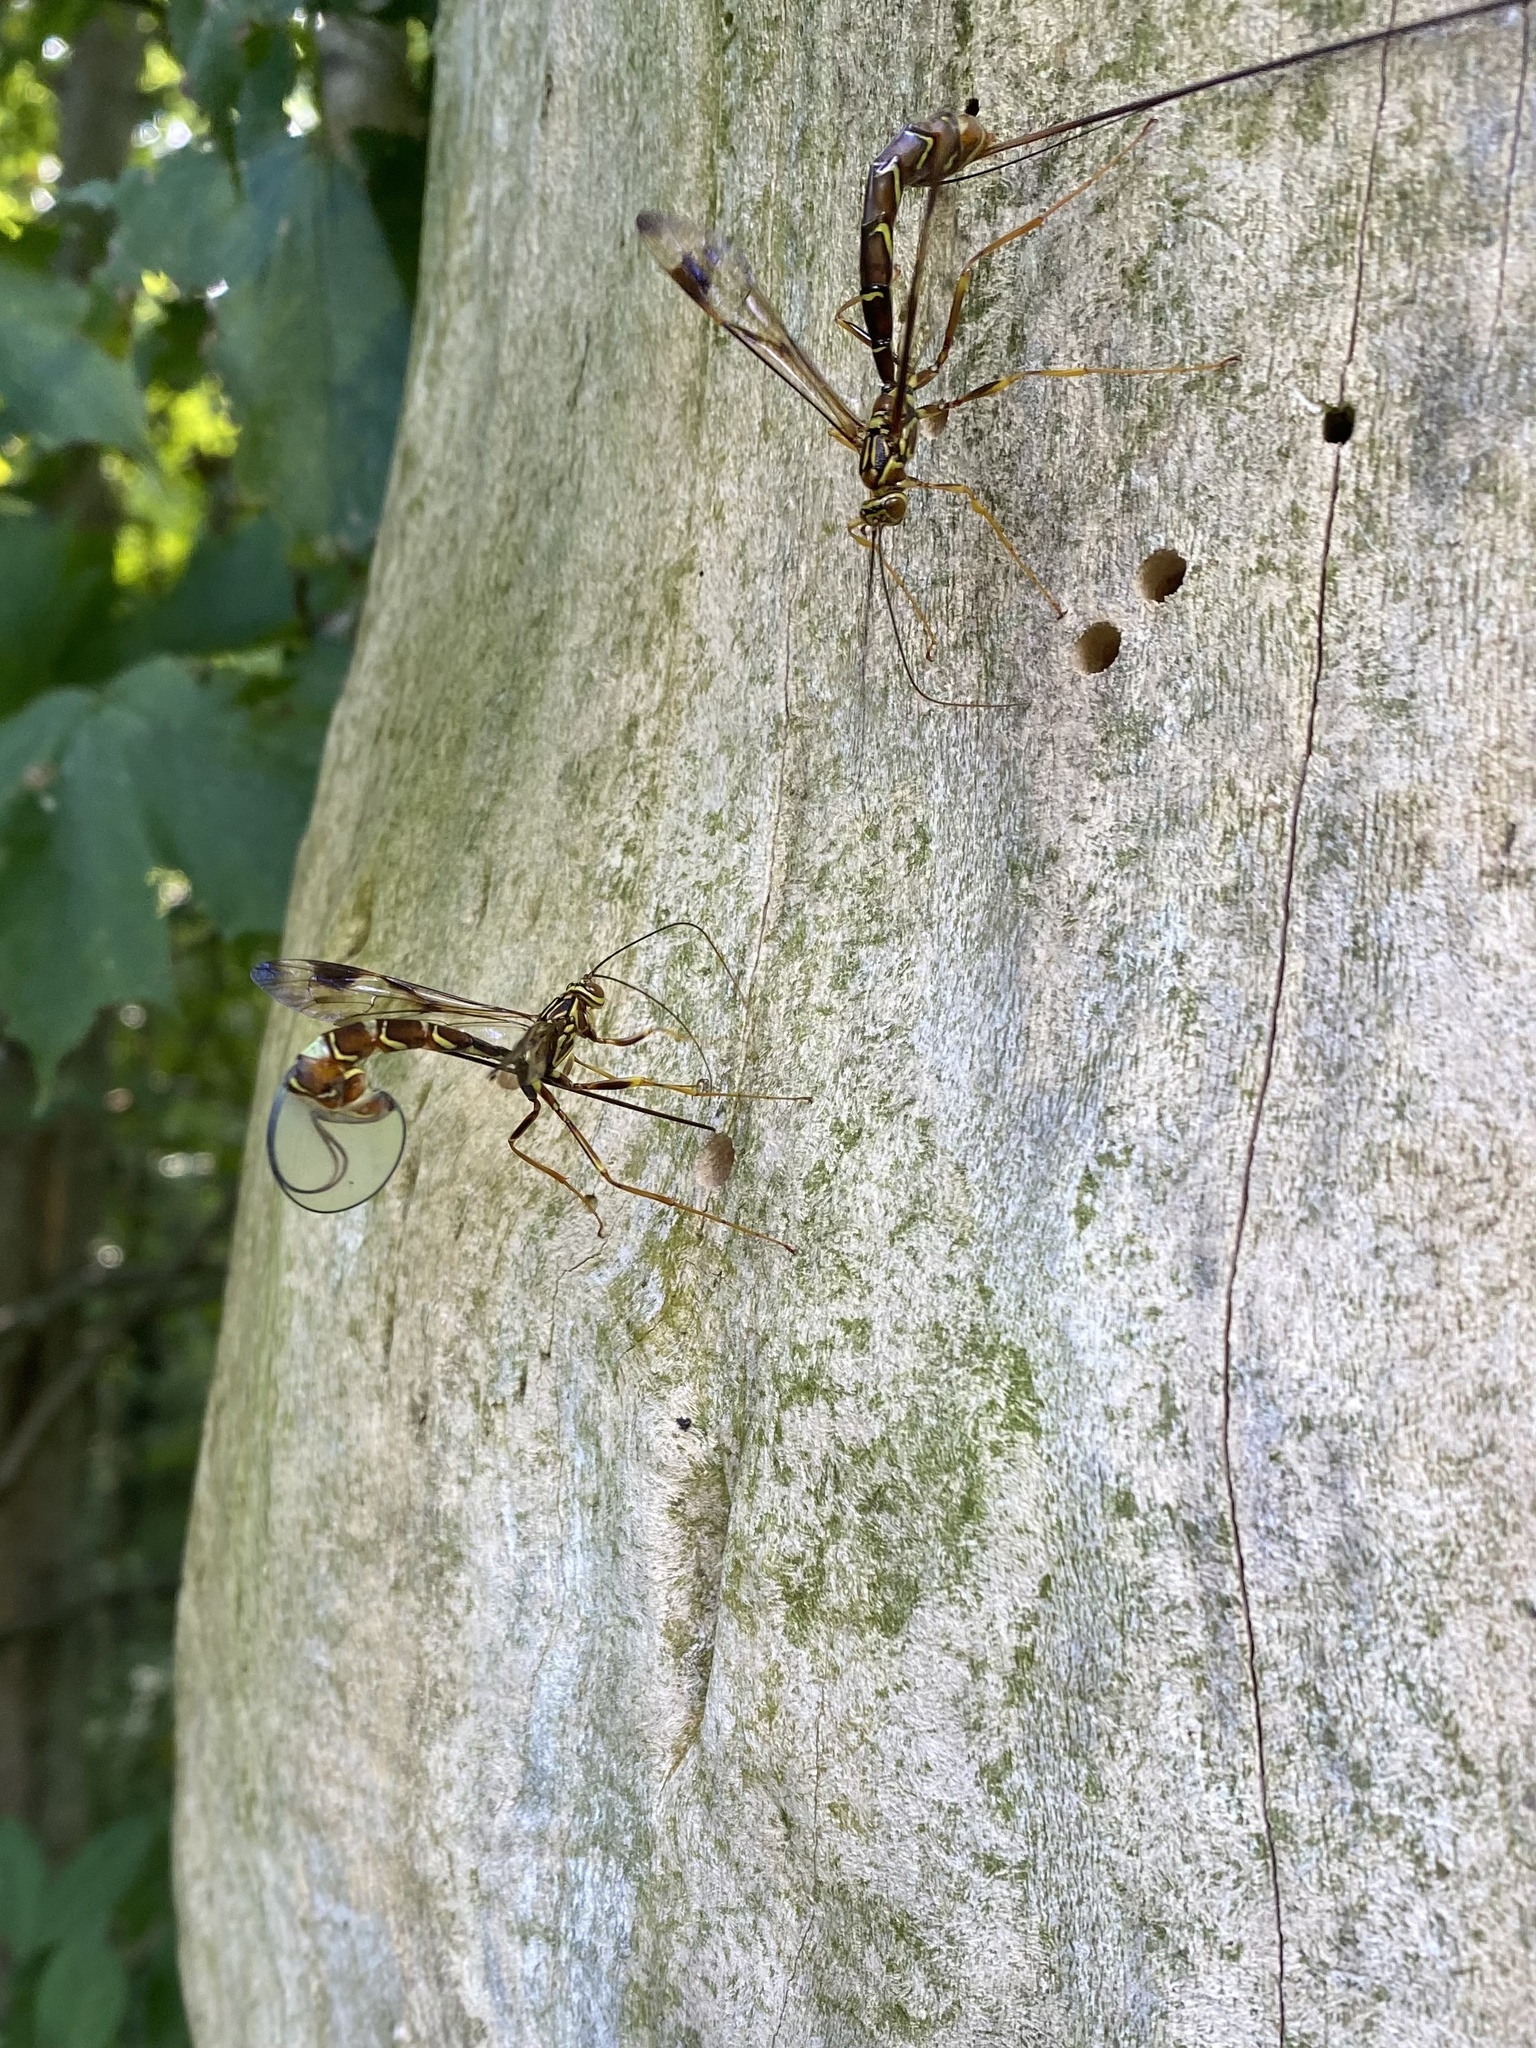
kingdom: Animalia
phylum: Arthropoda
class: Insecta
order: Hymenoptera
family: Ichneumonidae
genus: Megarhyssa
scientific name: Megarhyssa macrura
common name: Long-tailed giant ichneumonid wasp
